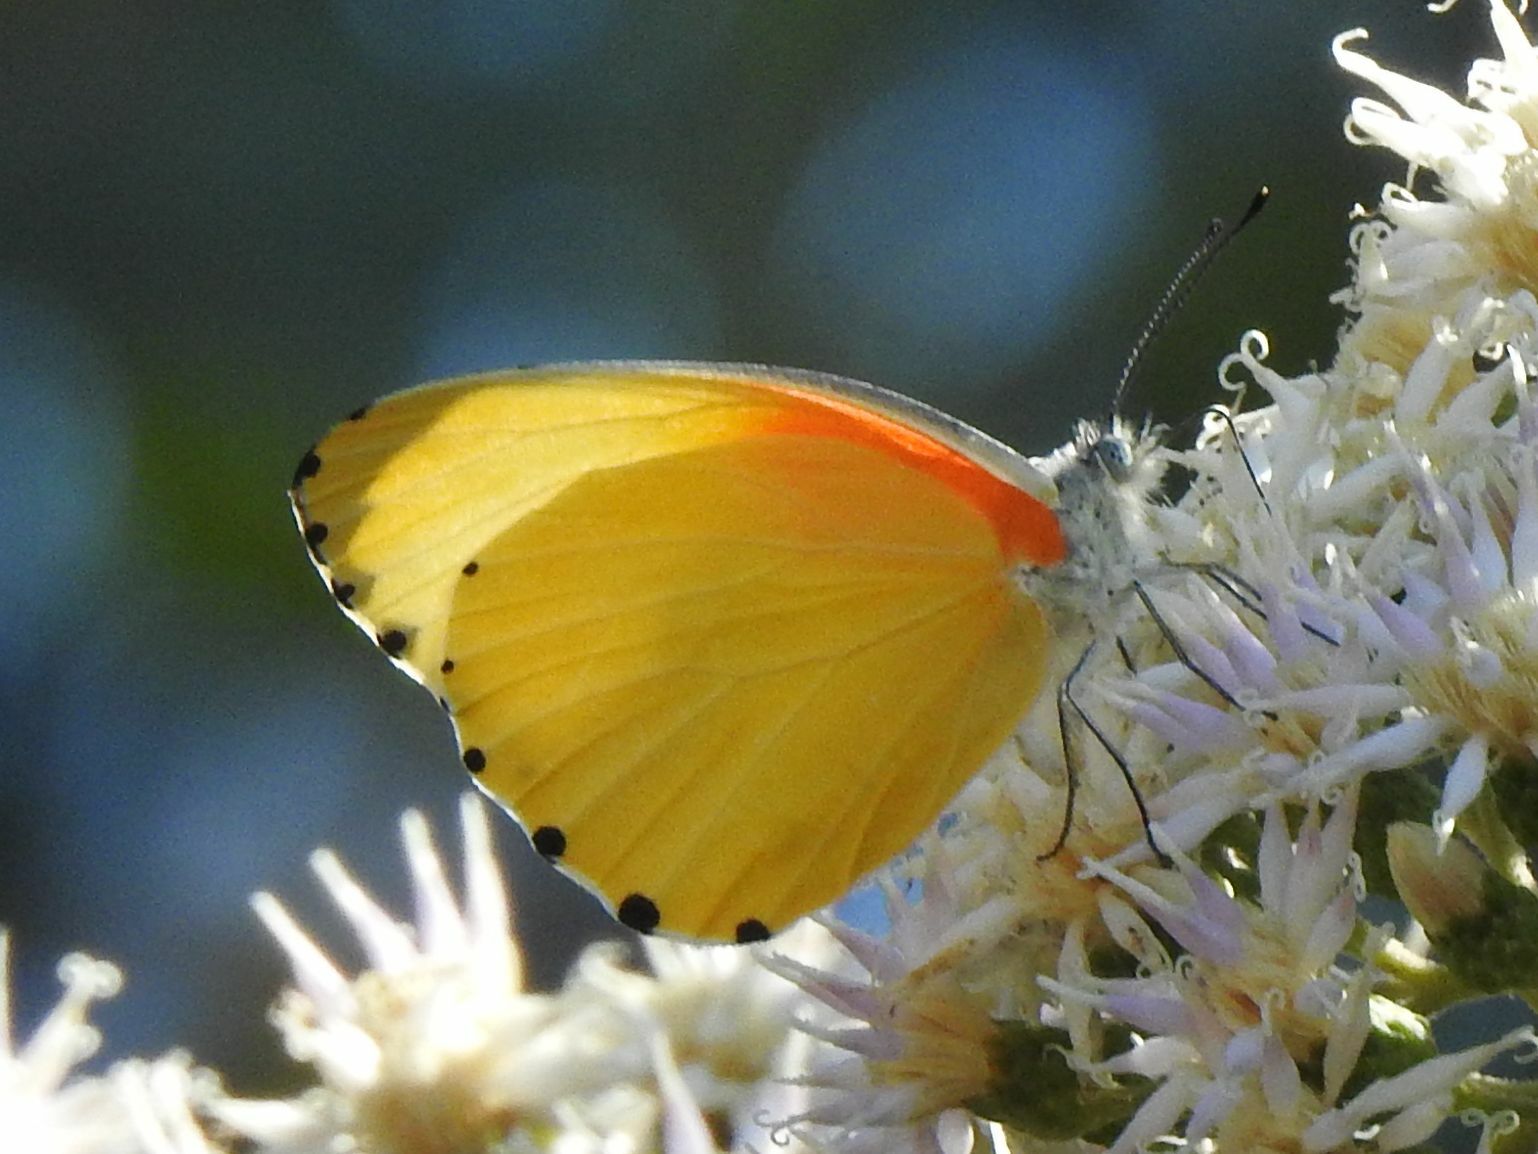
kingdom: Animalia
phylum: Arthropoda
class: Insecta
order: Lepidoptera
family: Pieridae
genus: Mylothris
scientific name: Mylothris agathina
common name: Eastern dotted border
